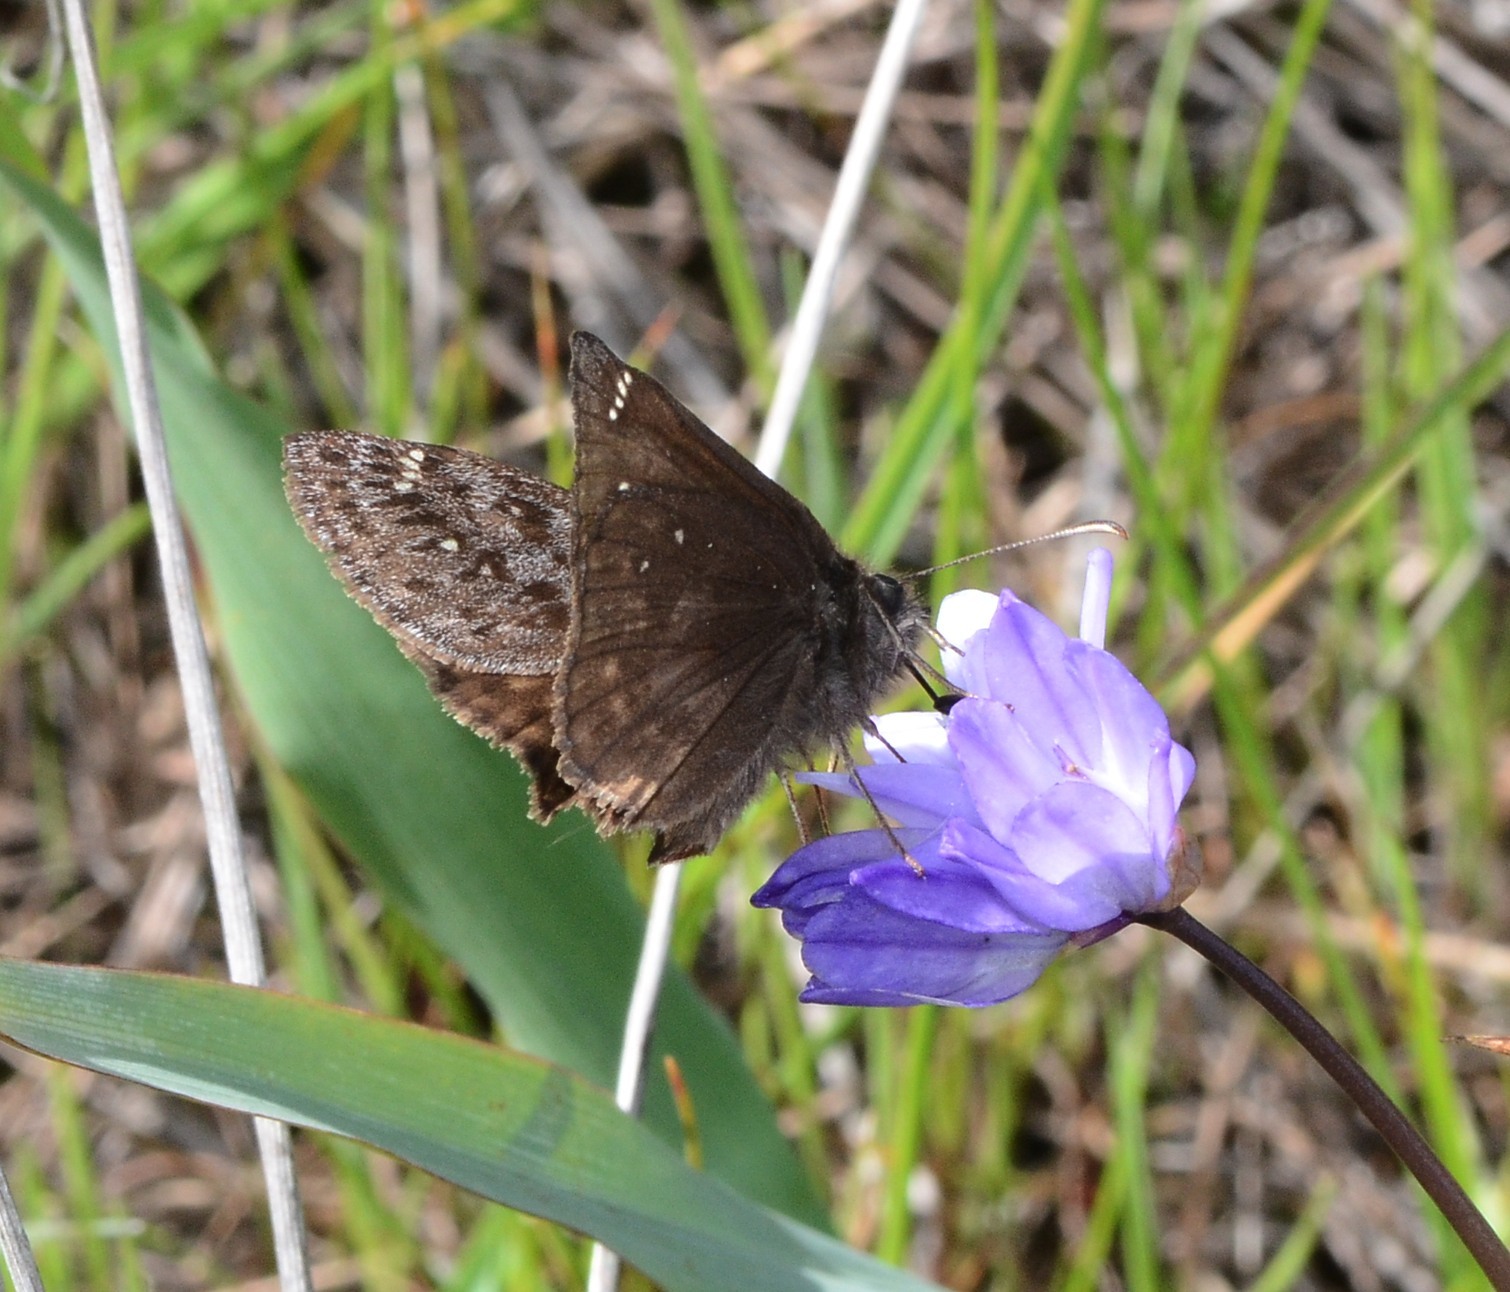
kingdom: Animalia
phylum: Arthropoda
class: Insecta
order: Lepidoptera
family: Hesperiidae
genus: Erynnis
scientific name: Erynnis propertius
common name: Propertius duskywing
